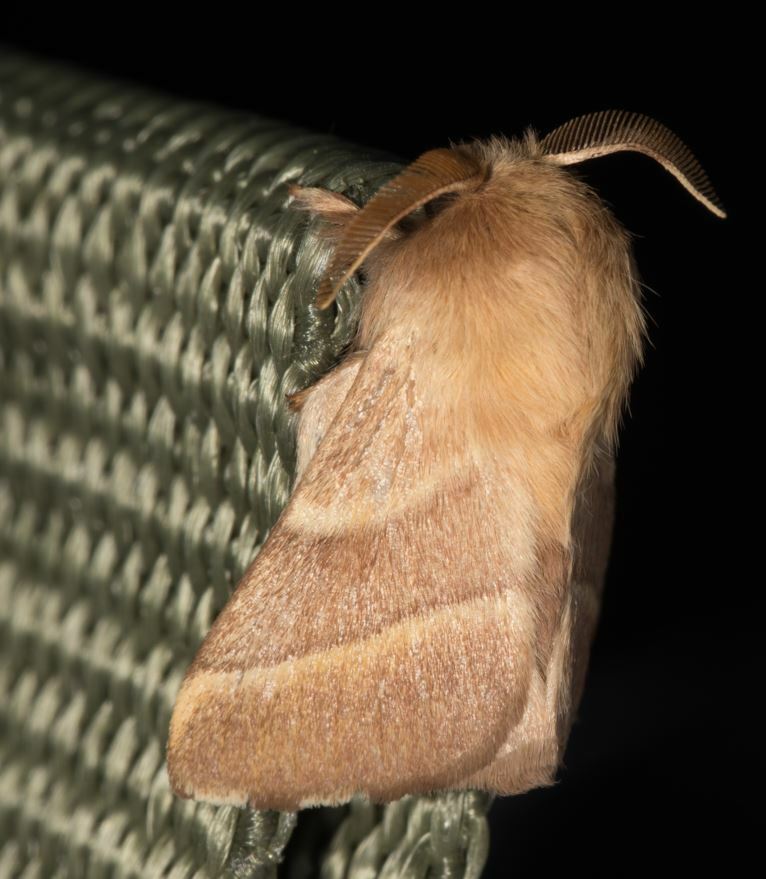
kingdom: Animalia
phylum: Arthropoda
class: Insecta
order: Lepidoptera
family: Lasiocampidae
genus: Malacosoma
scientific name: Malacosoma neustria
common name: The lackey
